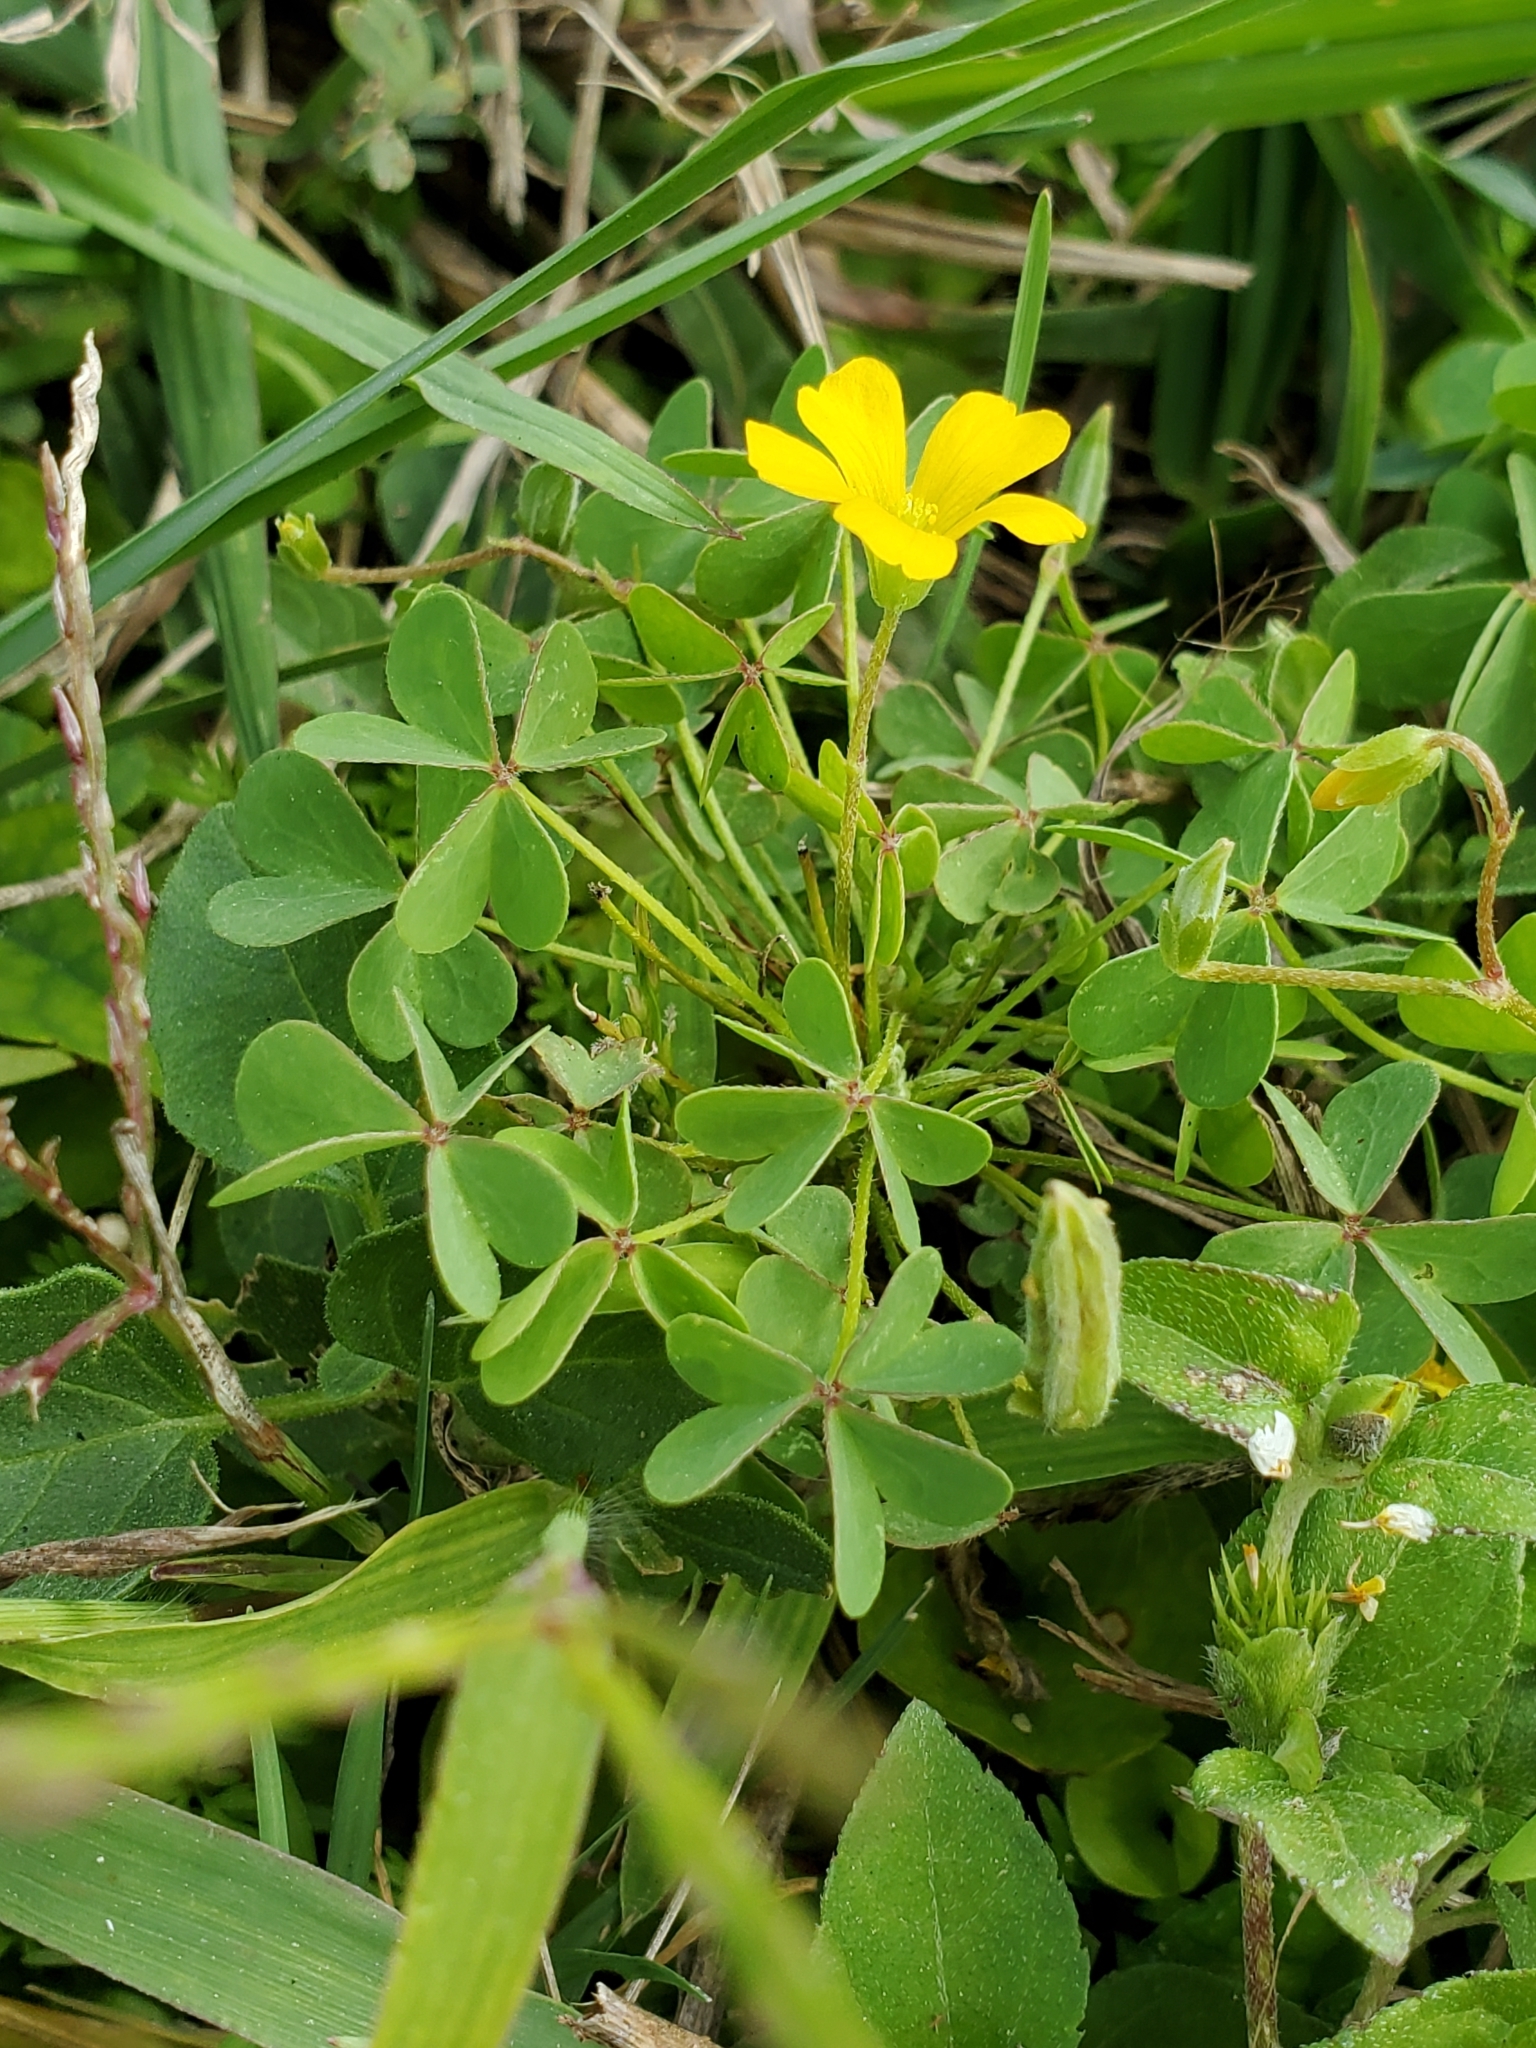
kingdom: Plantae
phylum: Tracheophyta
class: Magnoliopsida
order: Oxalidales
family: Oxalidaceae
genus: Oxalis
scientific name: Oxalis dillenii
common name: Sussex yellow-sorrel
